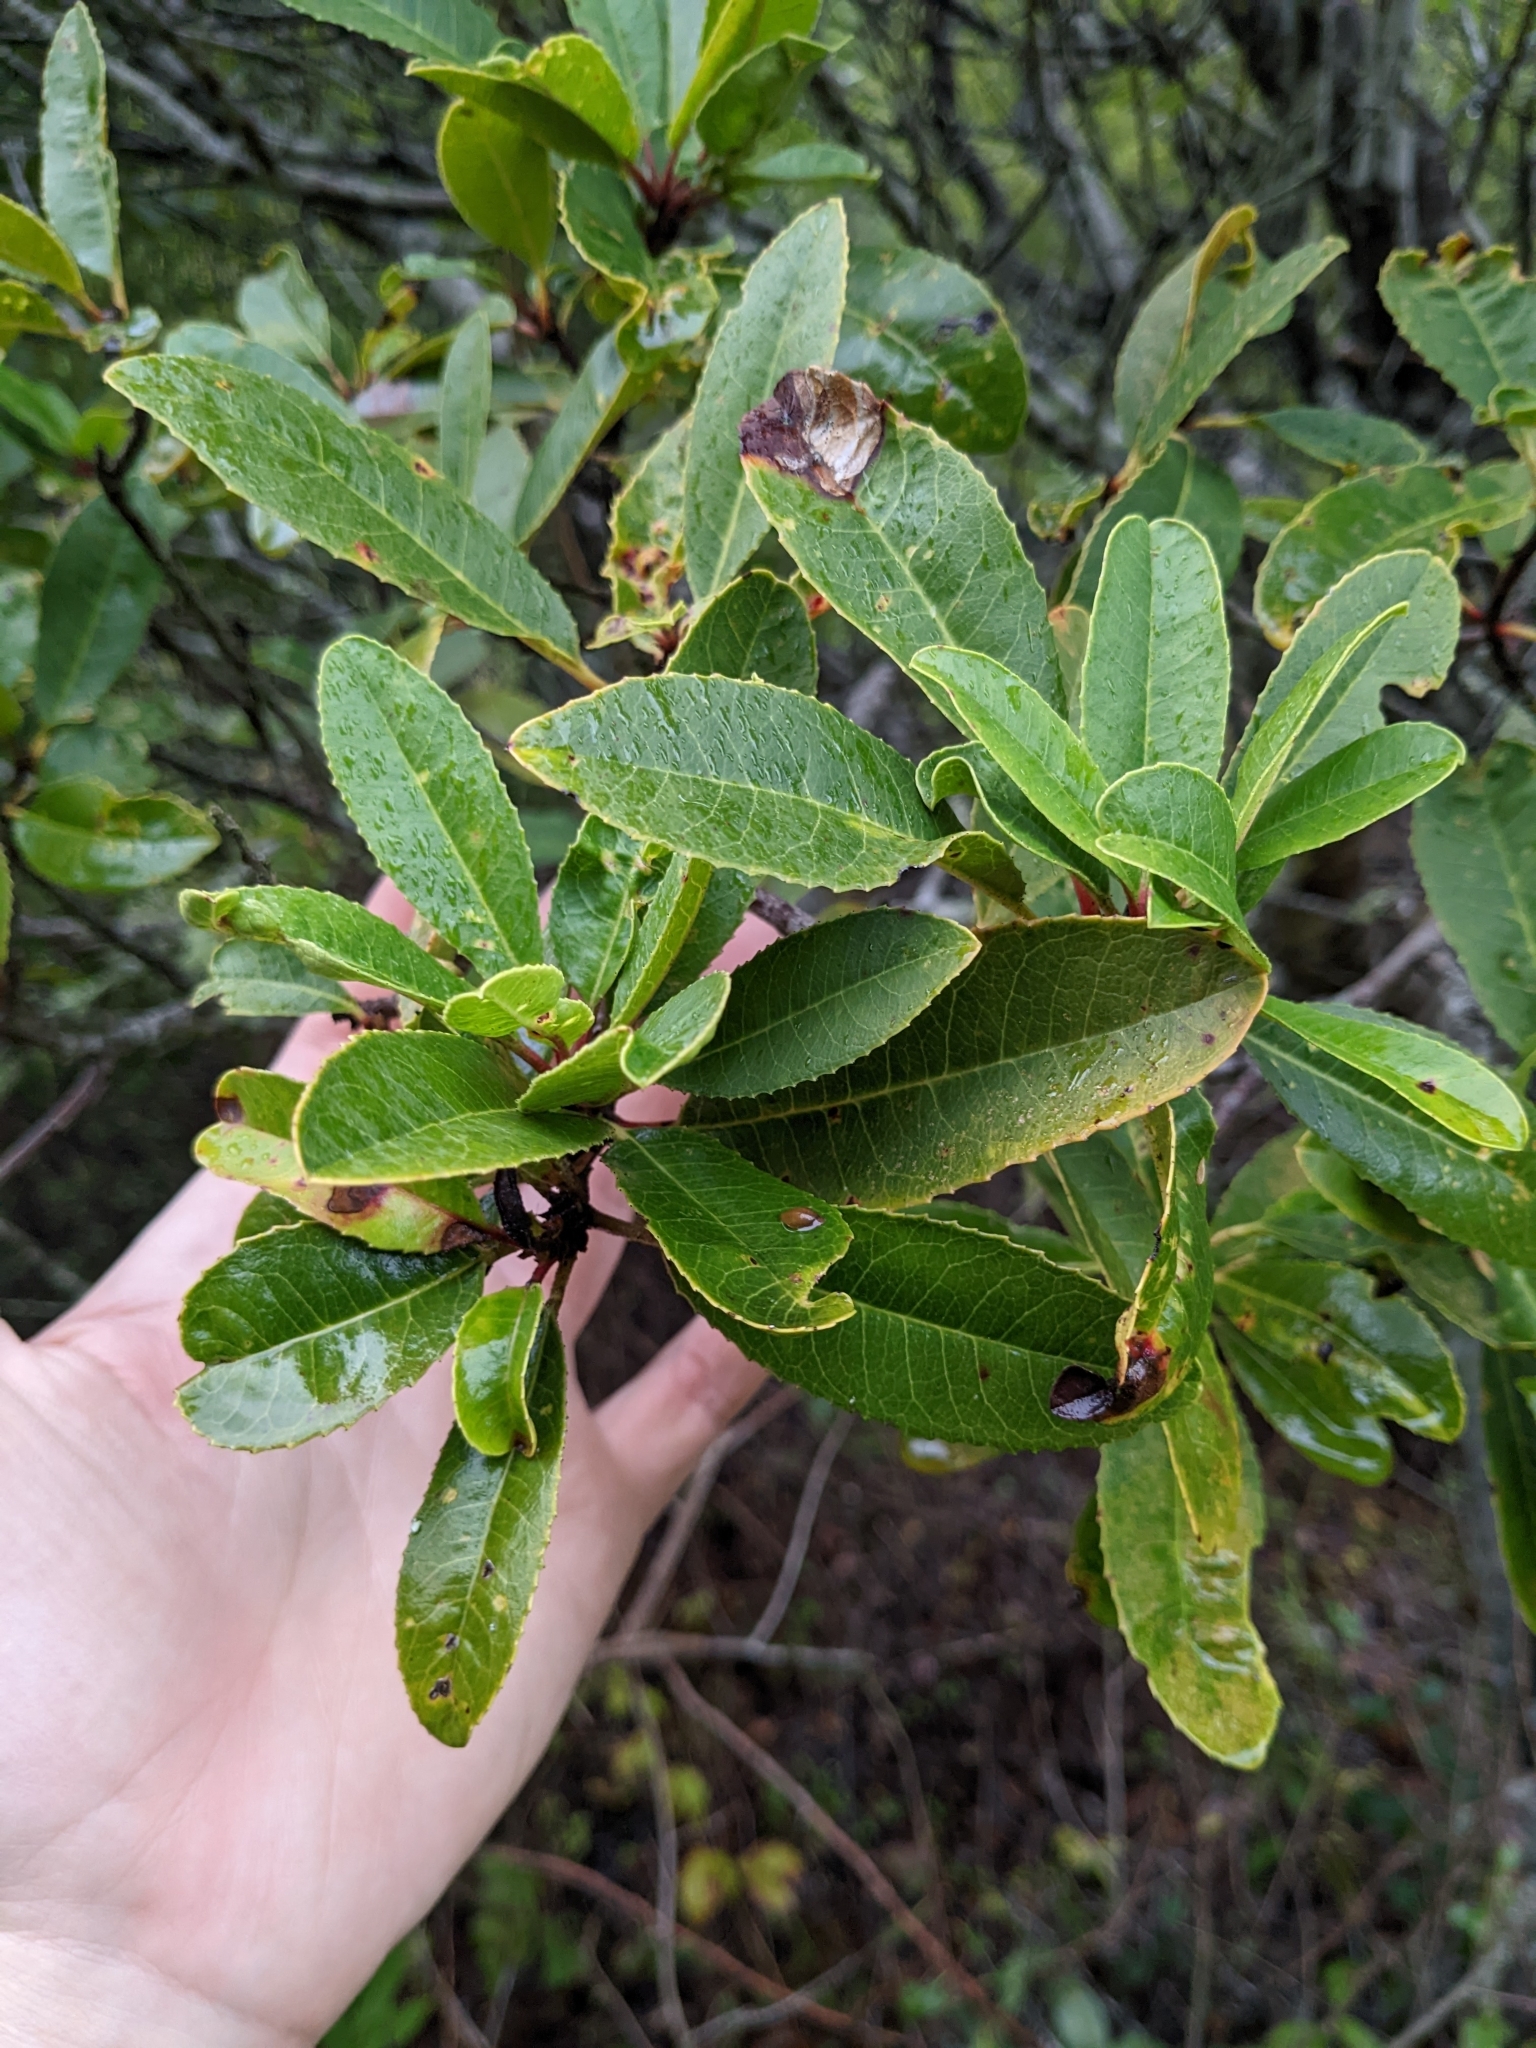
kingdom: Plantae
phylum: Tracheophyta
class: Magnoliopsida
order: Rosales
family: Rosaceae
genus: Heteromeles
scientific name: Heteromeles arbutifolia
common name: California-holly
